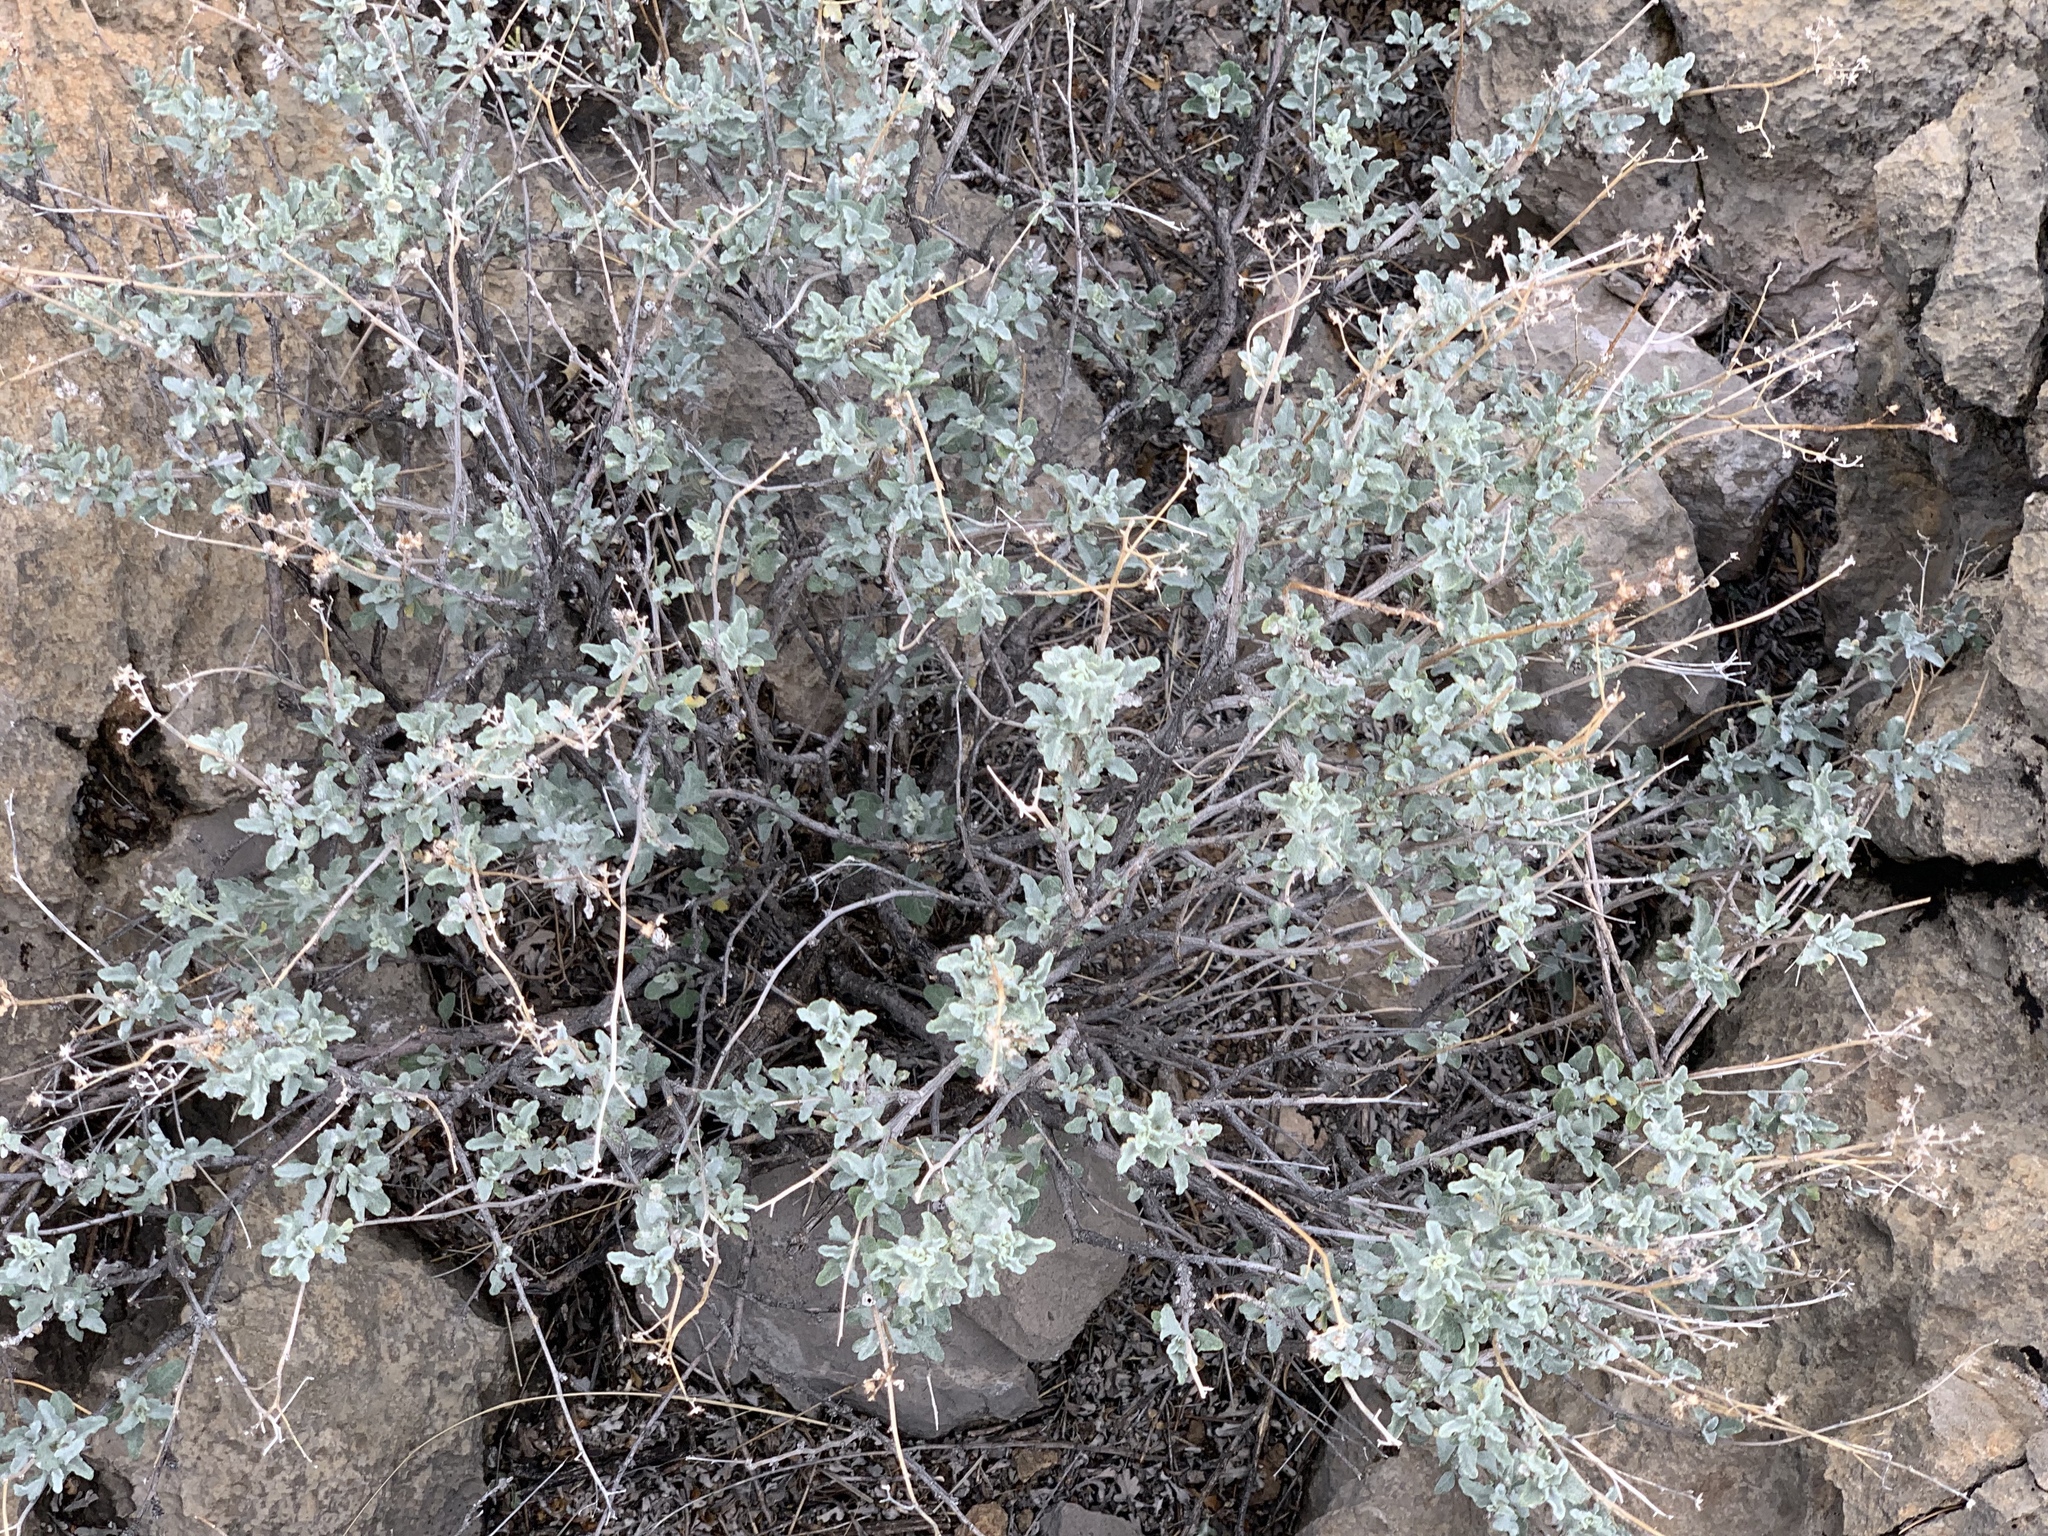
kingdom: Plantae
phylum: Tracheophyta
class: Magnoliopsida
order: Asterales
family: Asteraceae
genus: Parthenium
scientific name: Parthenium incanum
